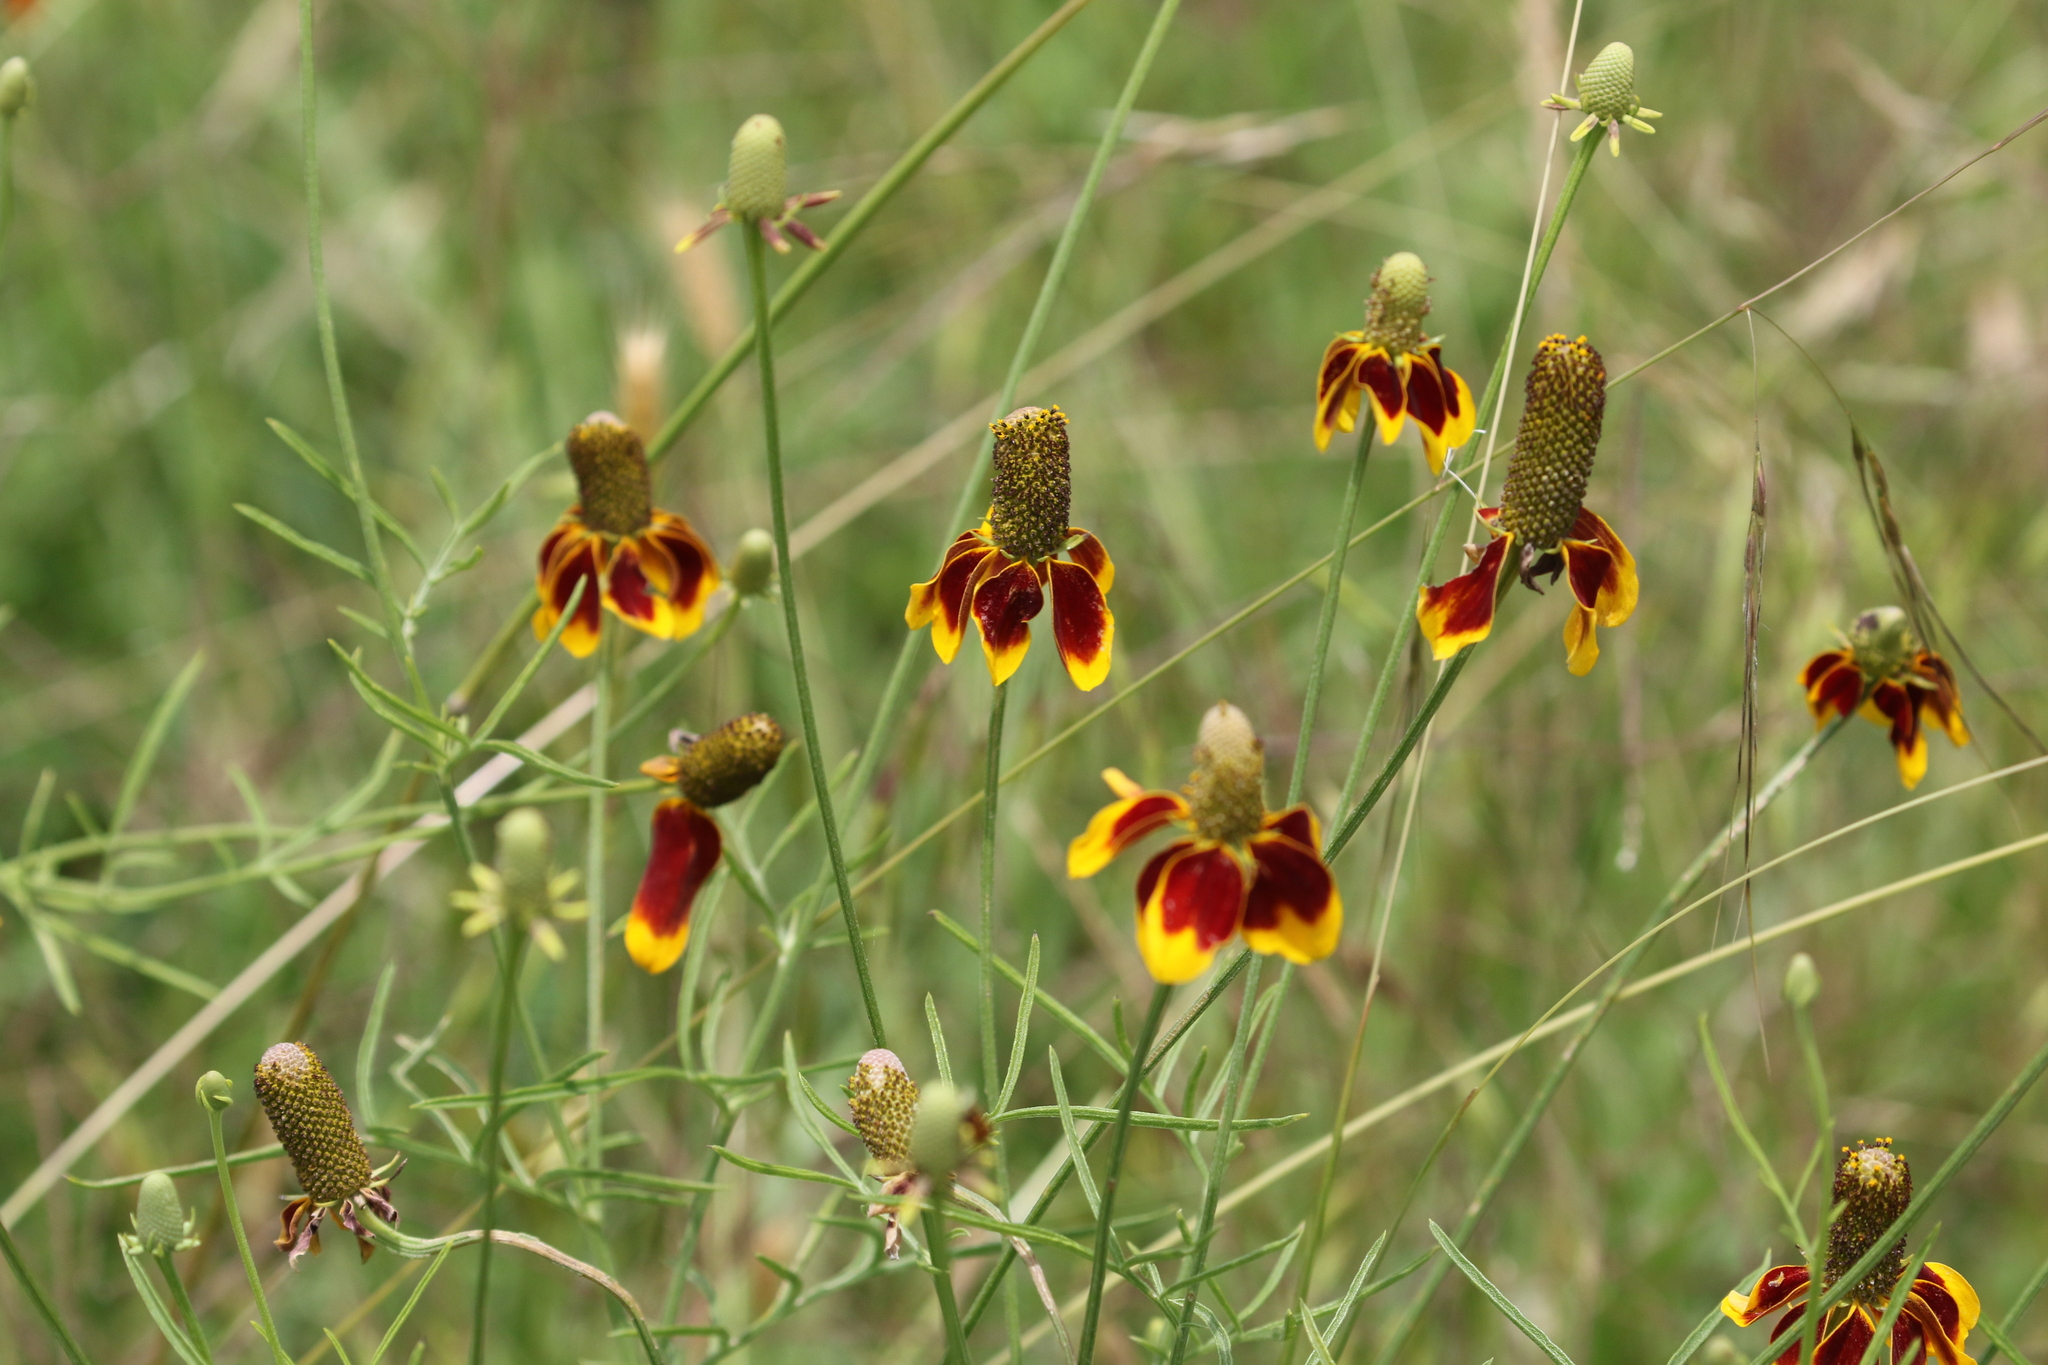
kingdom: Plantae
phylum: Tracheophyta
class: Magnoliopsida
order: Asterales
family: Asteraceae
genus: Ratibida
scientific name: Ratibida columnifera
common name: Prairie coneflower
